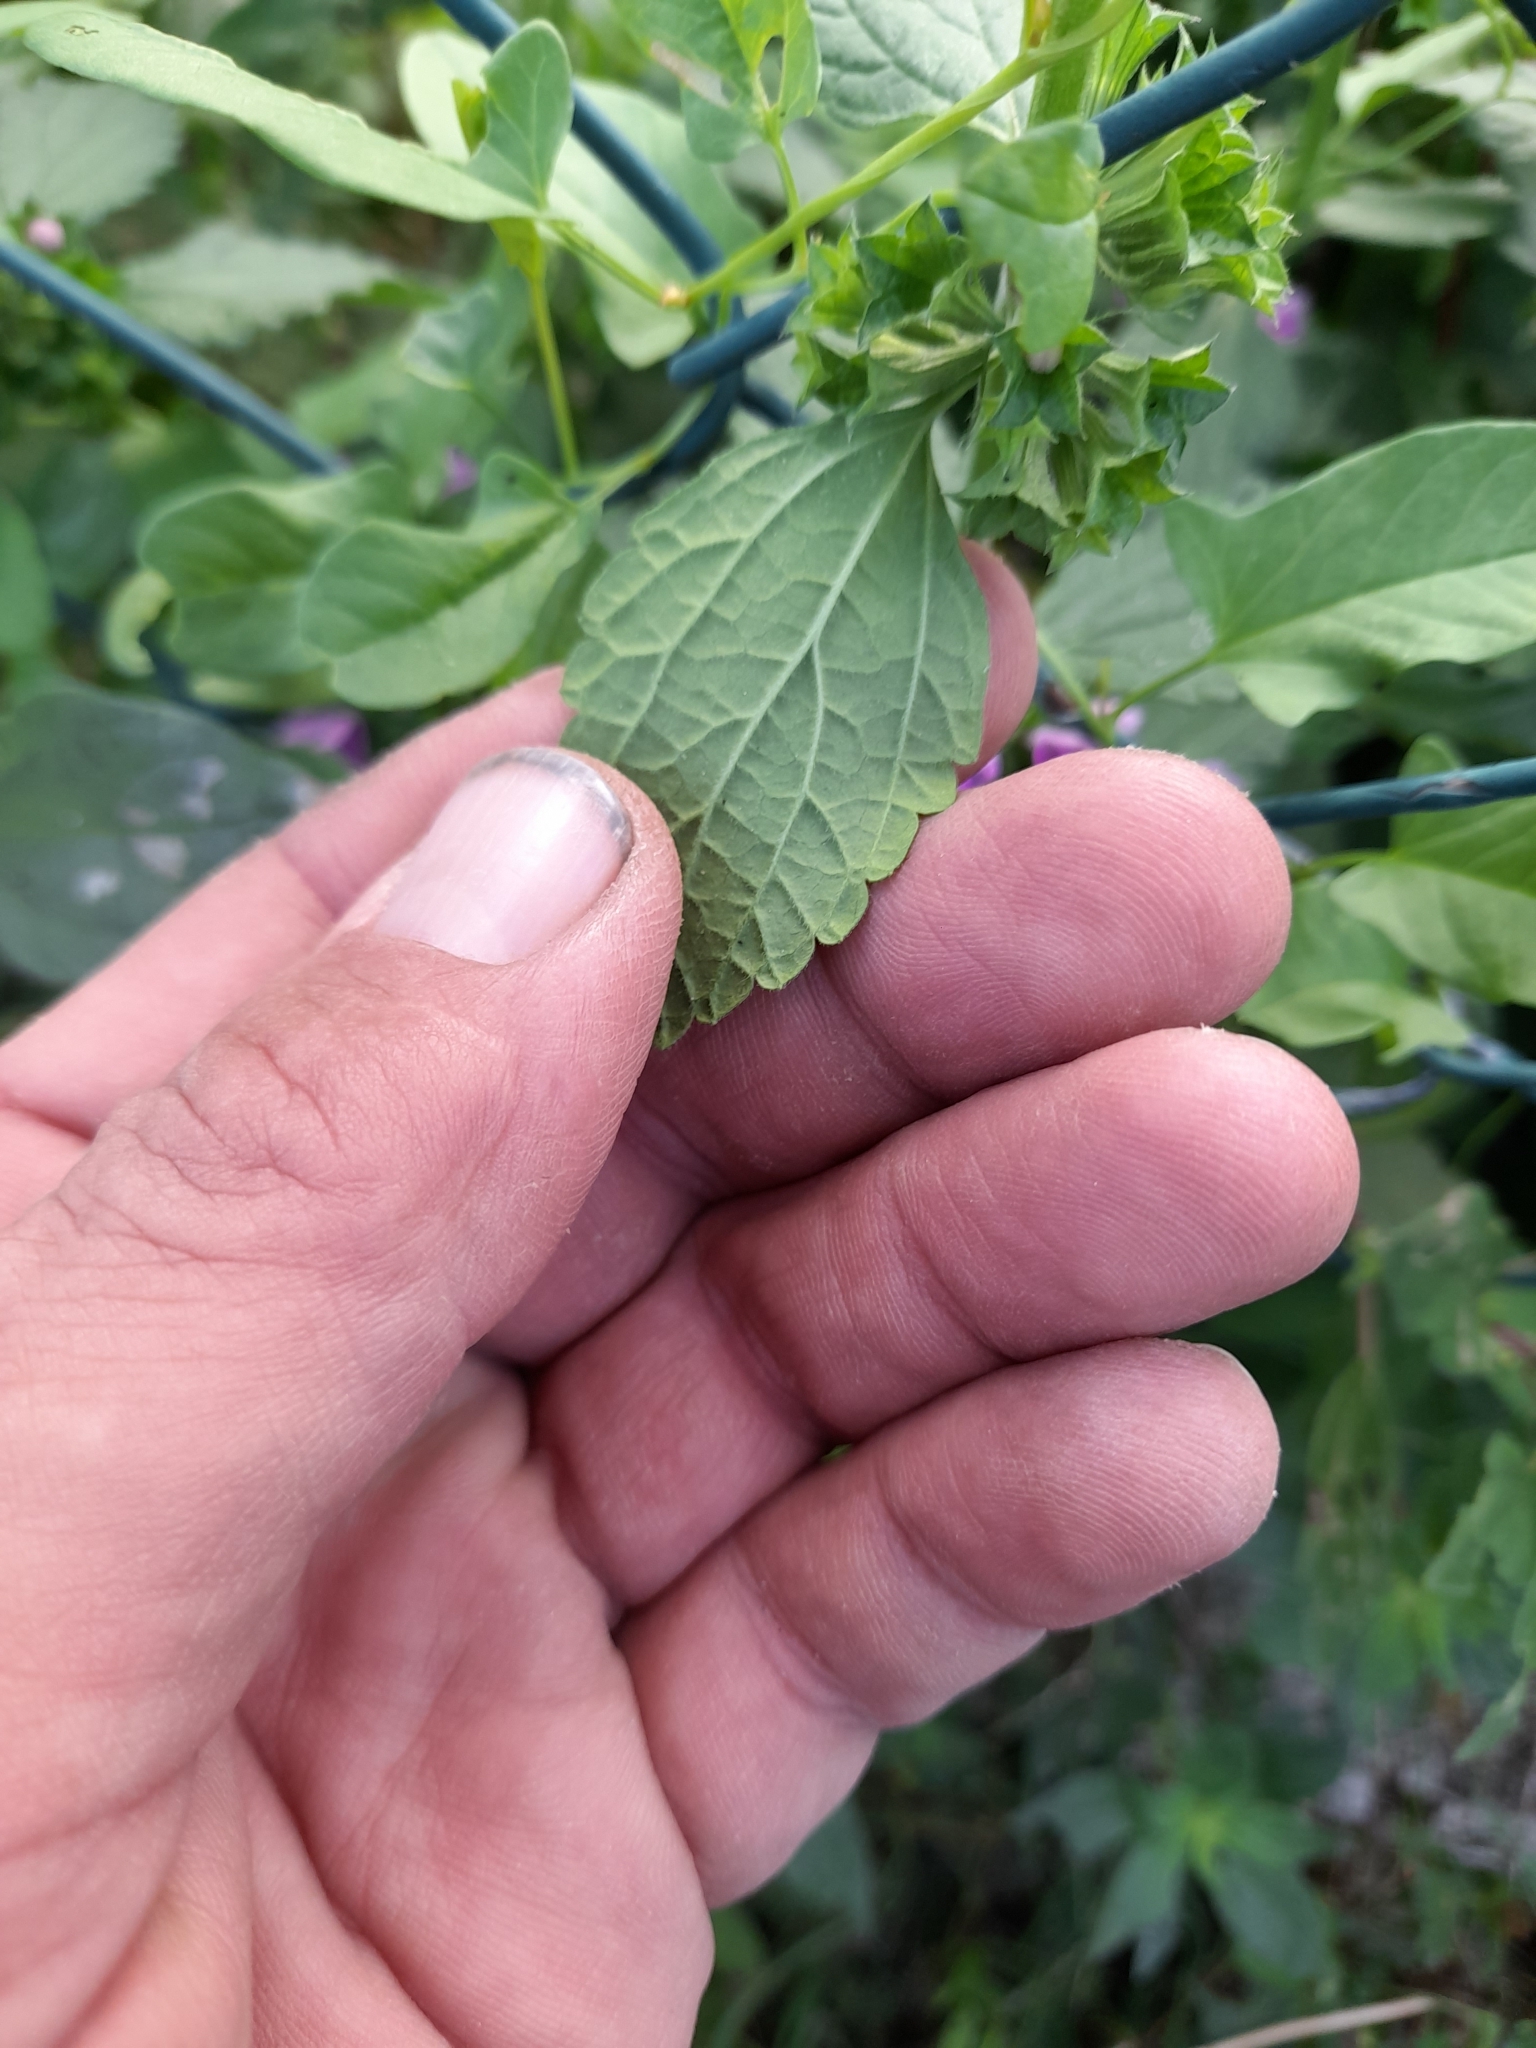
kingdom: Plantae
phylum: Tracheophyta
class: Magnoliopsida
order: Lamiales
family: Lamiaceae
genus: Ballota
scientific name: Ballota nigra
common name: Black horehound
